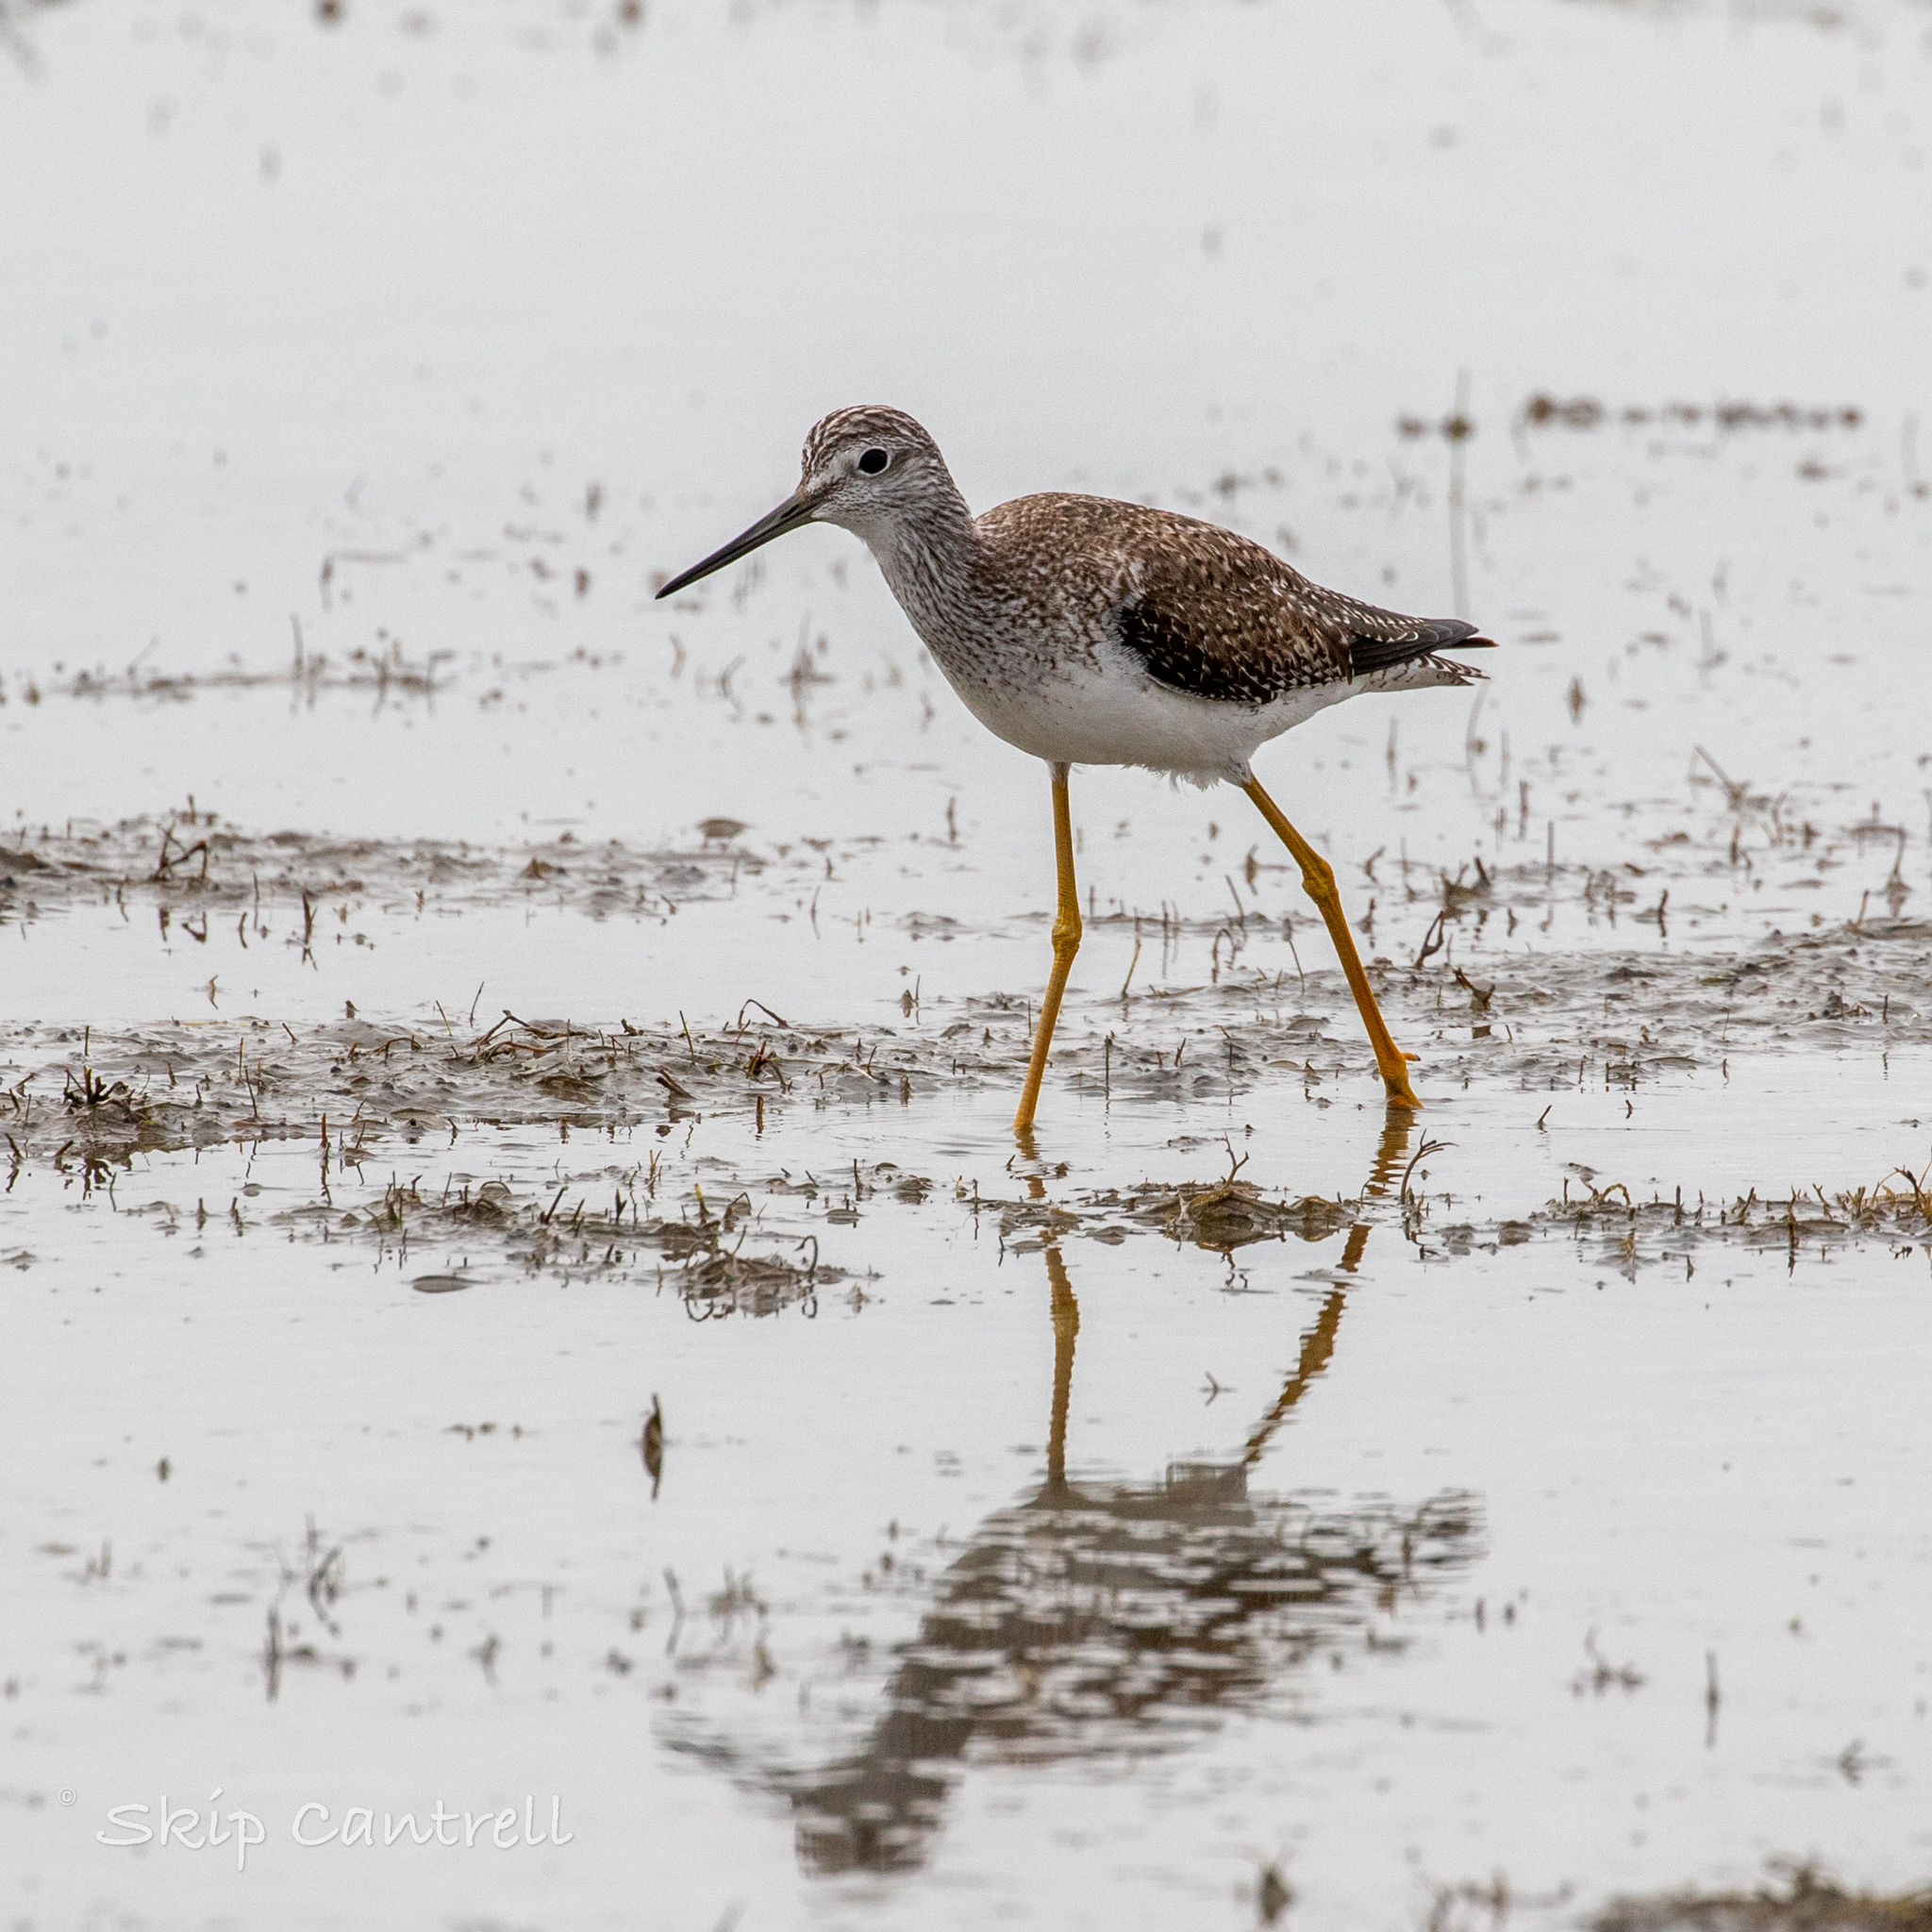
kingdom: Animalia
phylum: Chordata
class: Aves
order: Charadriiformes
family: Scolopacidae
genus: Tringa
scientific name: Tringa melanoleuca
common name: Greater yellowlegs
